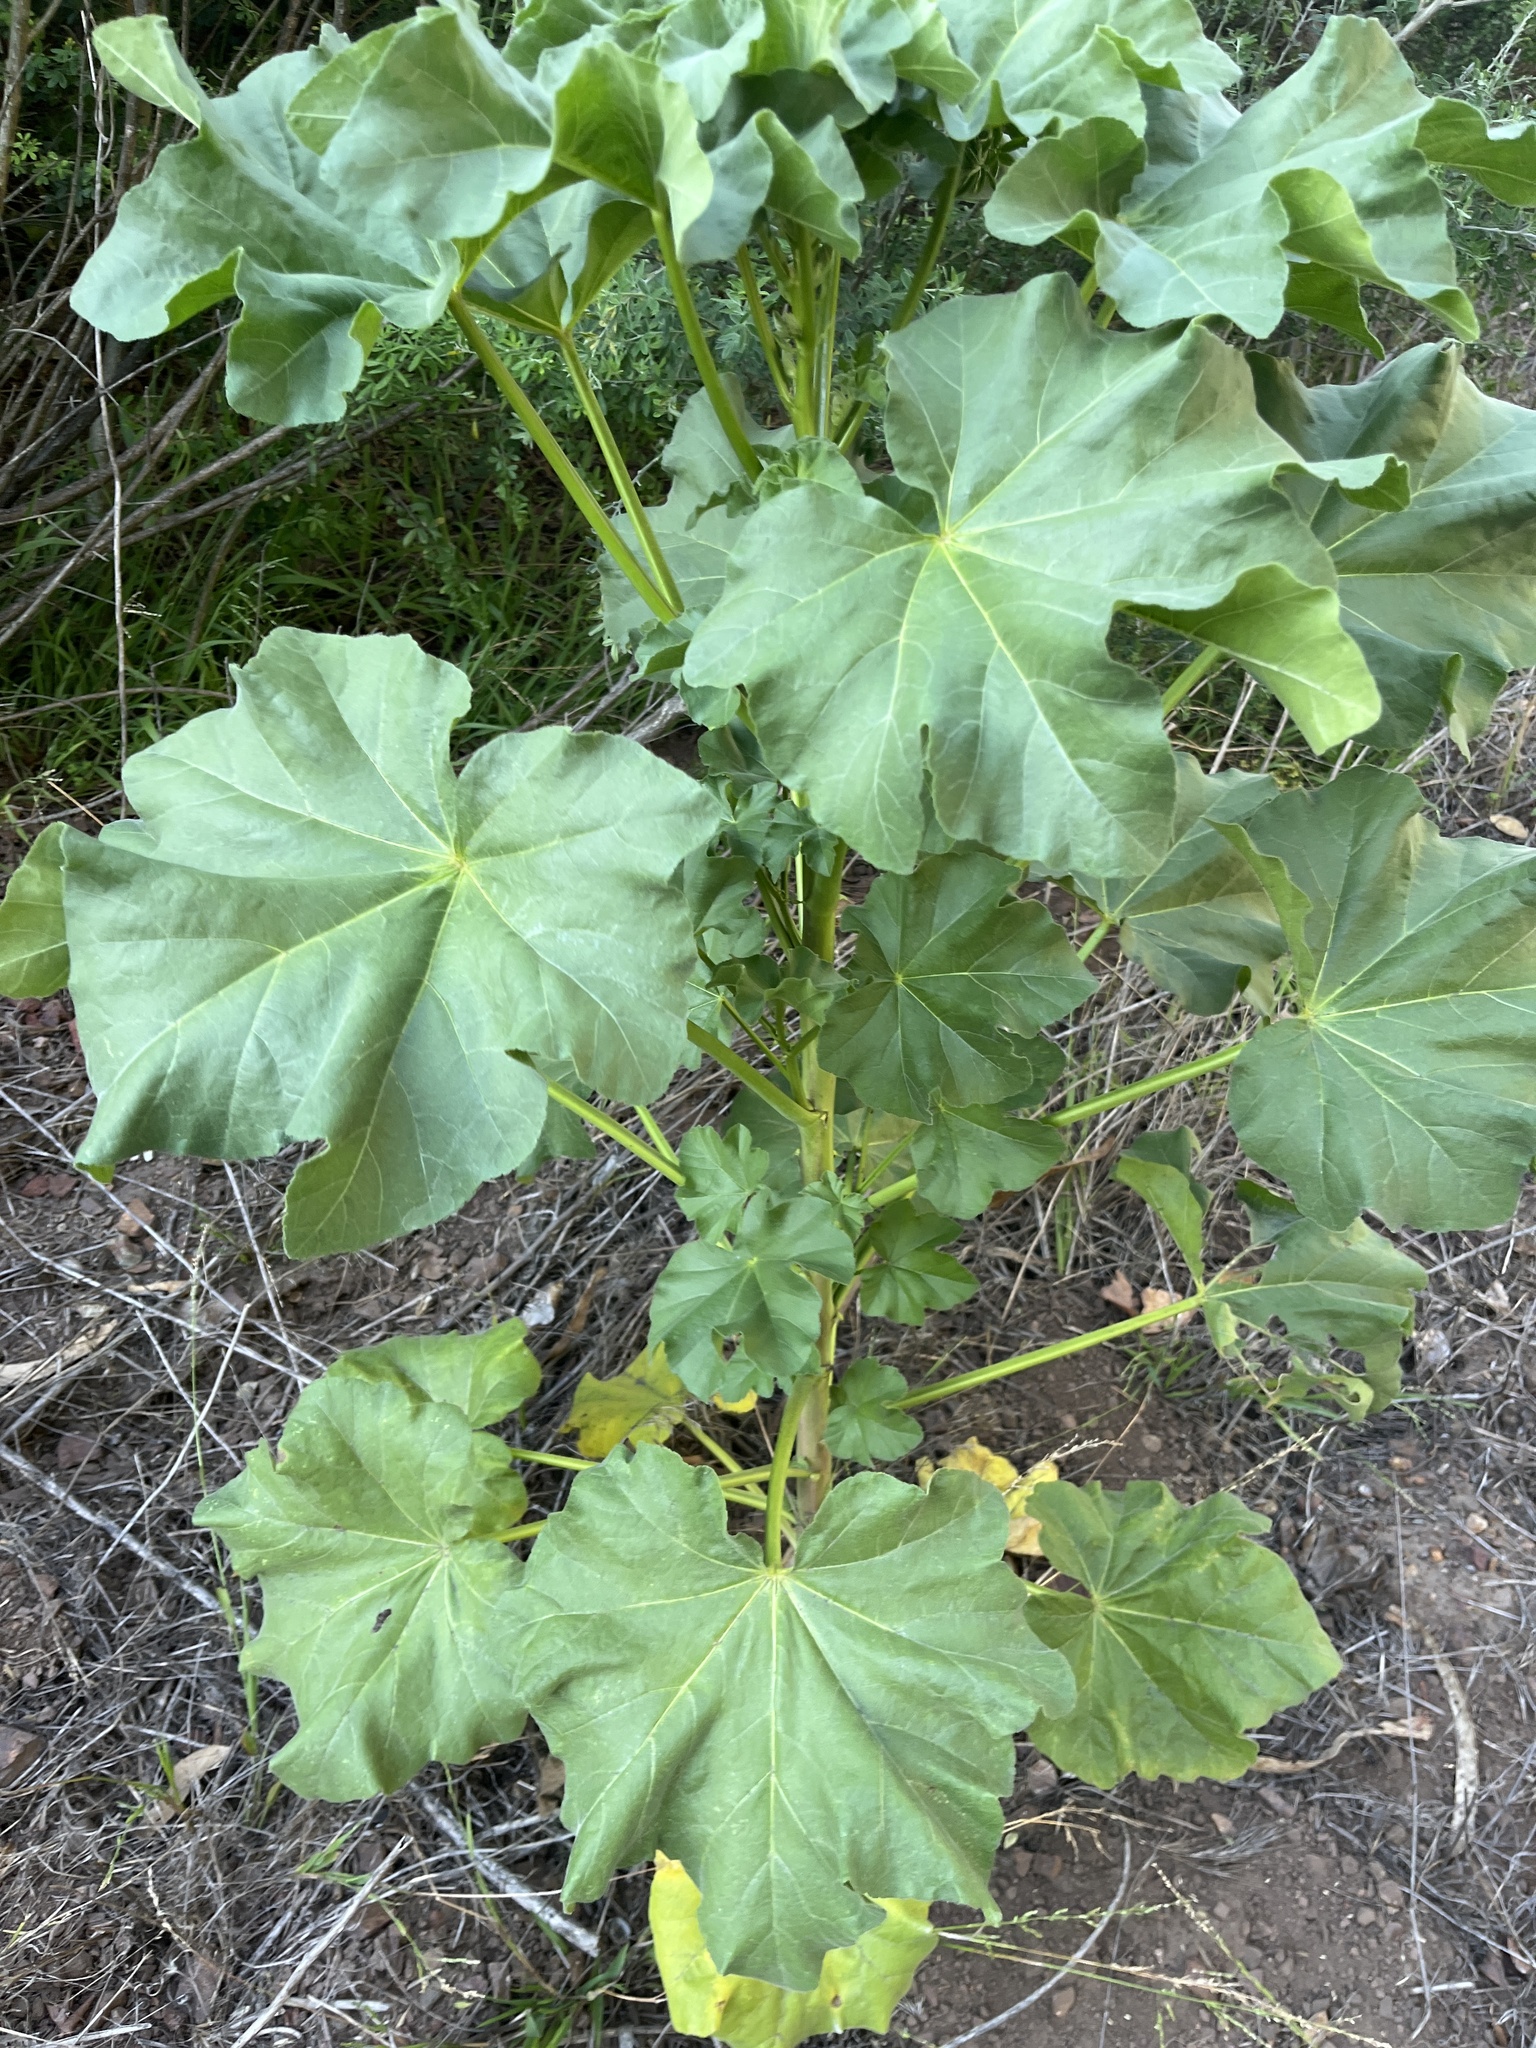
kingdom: Plantae
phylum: Tracheophyta
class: Magnoliopsida
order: Malvales
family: Malvaceae
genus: Malva
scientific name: Malva arborea
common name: Tree mallow
